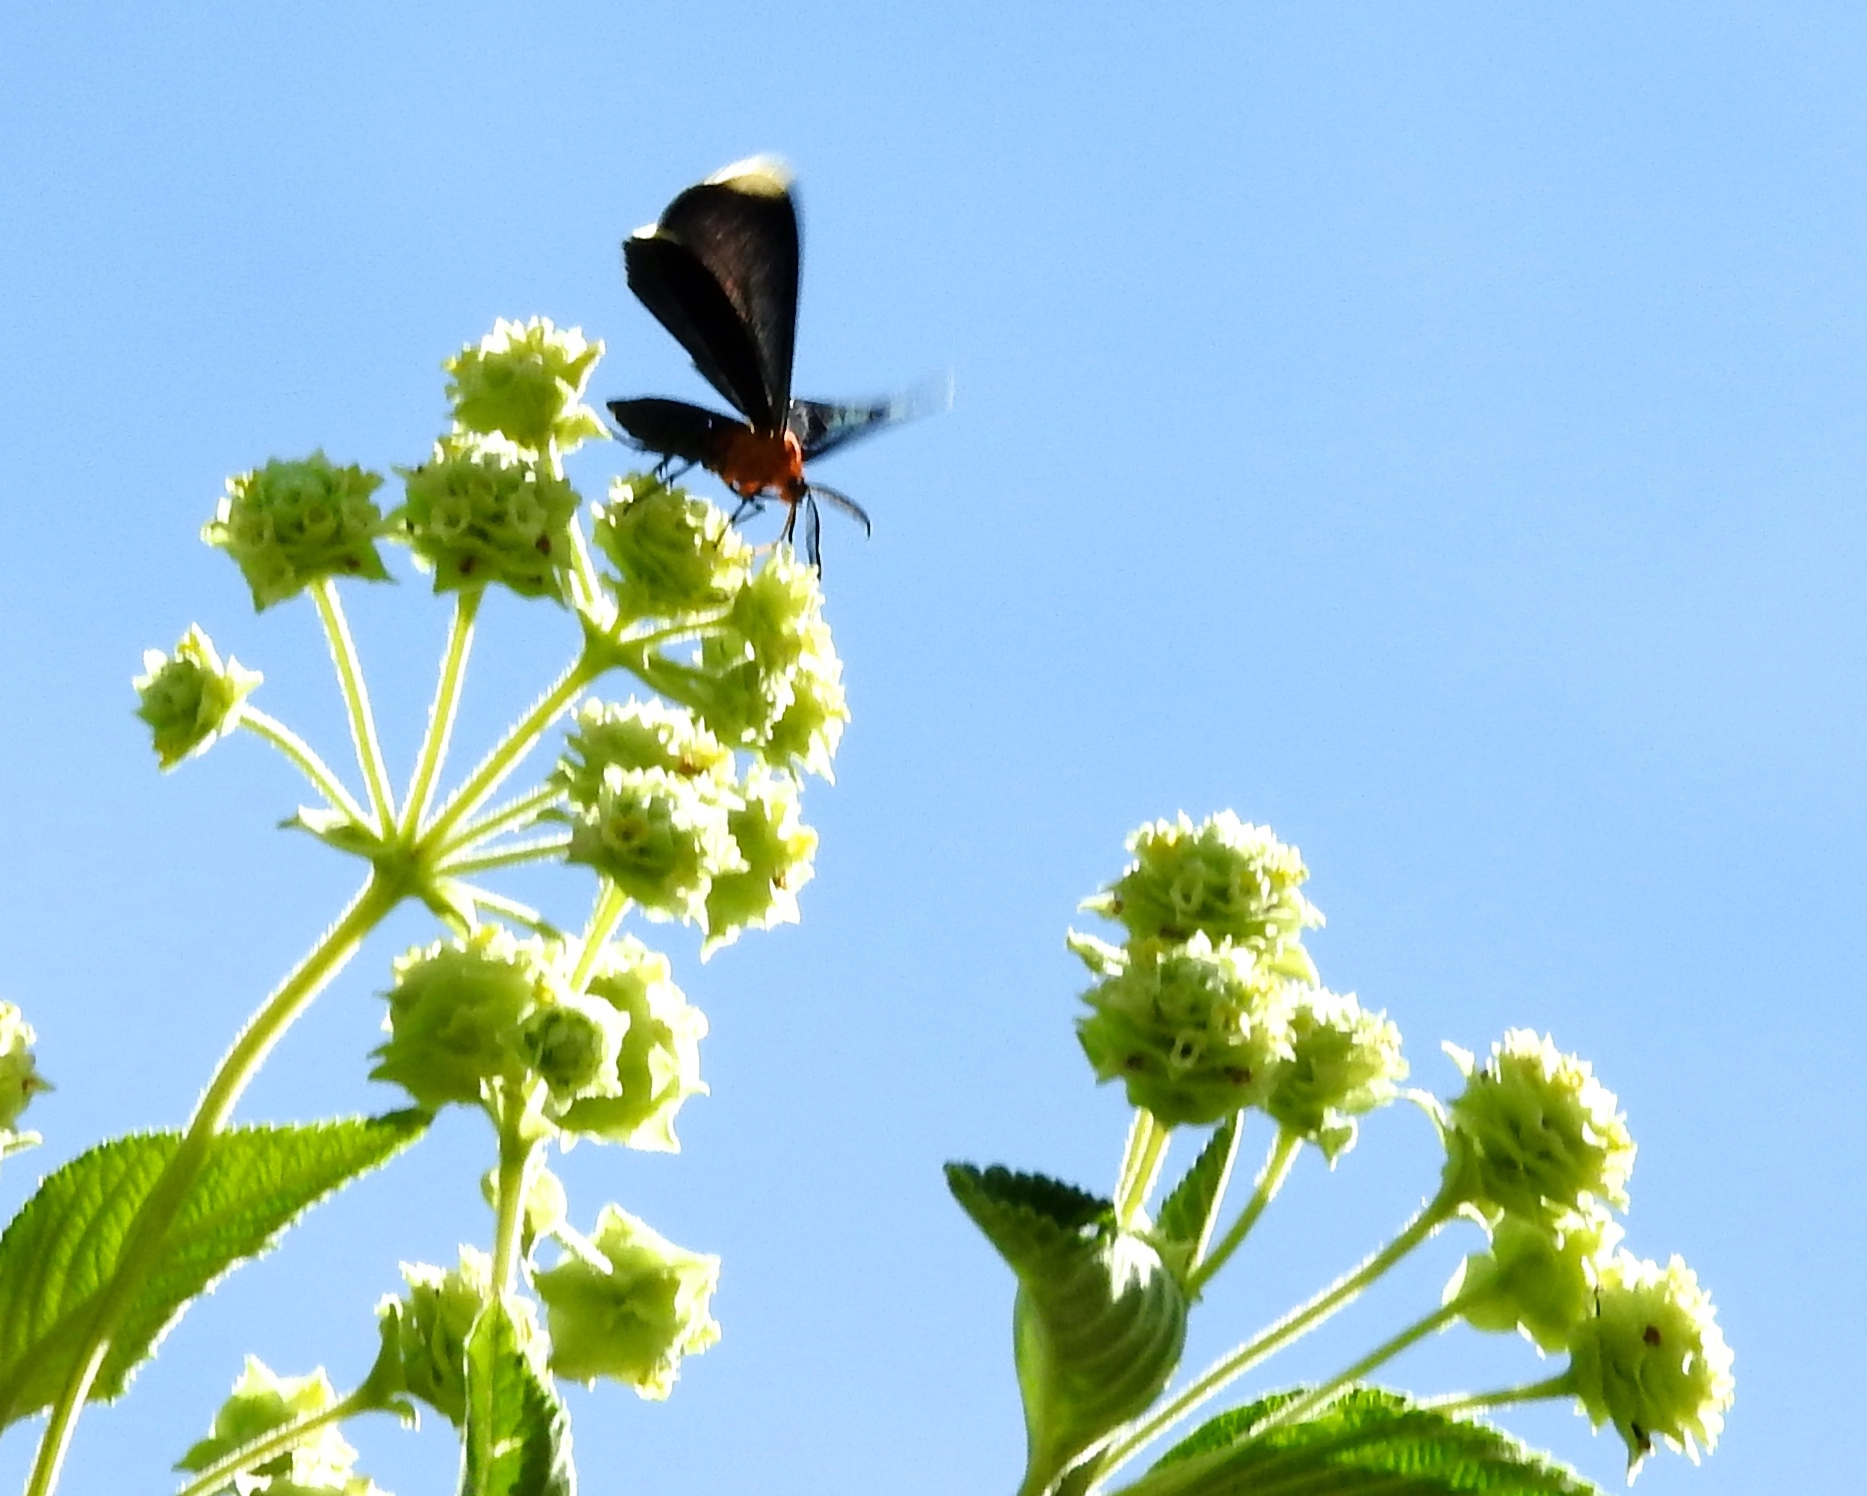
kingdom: Animalia
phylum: Arthropoda
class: Insecta
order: Lepidoptera
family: Geometridae
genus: Melanchroia
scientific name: Melanchroia chephise
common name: White-tipped black
